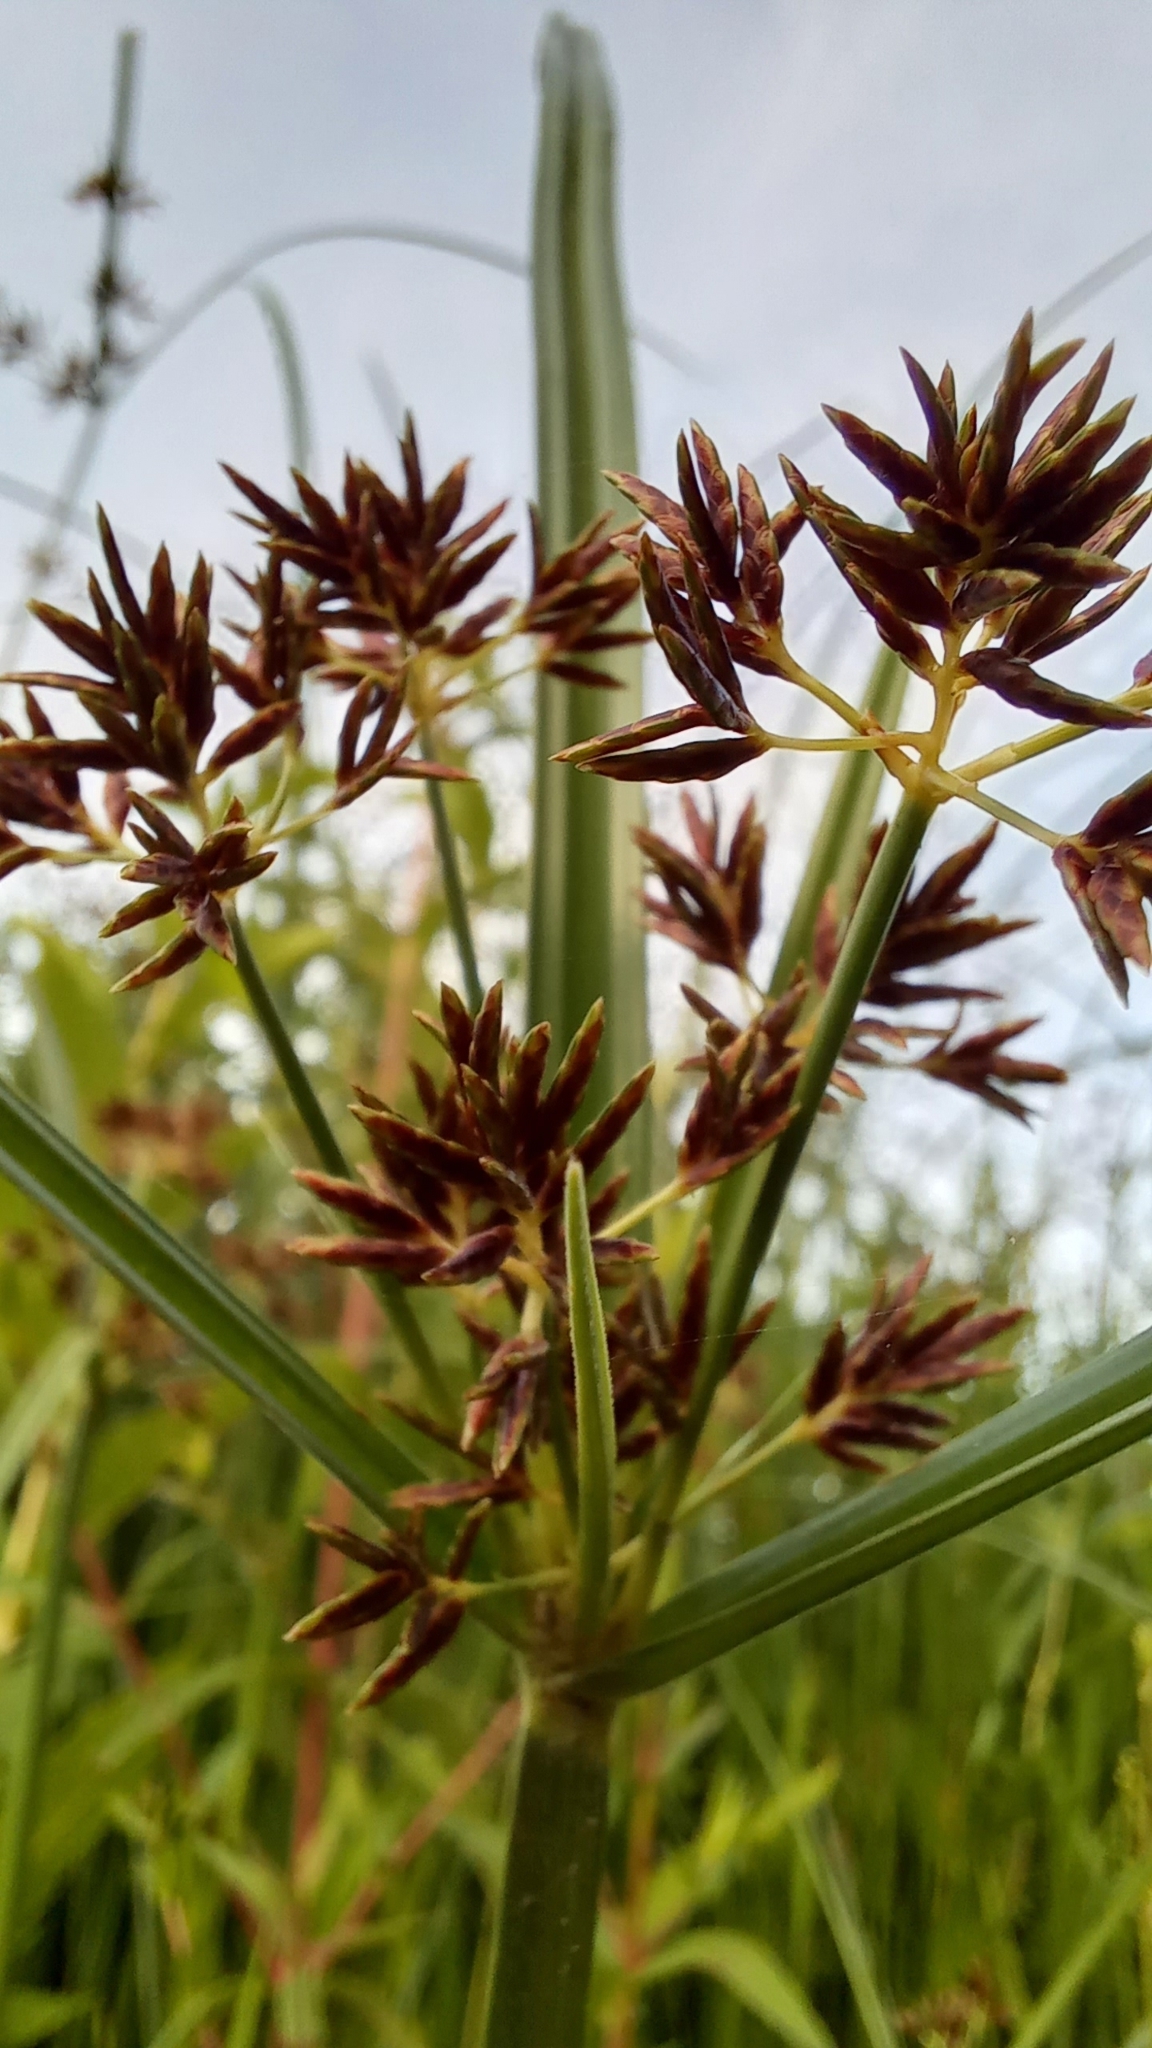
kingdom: Plantae
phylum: Tracheophyta
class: Liliopsida
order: Poales
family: Cyperaceae
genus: Cyperus
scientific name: Cyperus longus
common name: Galingale
